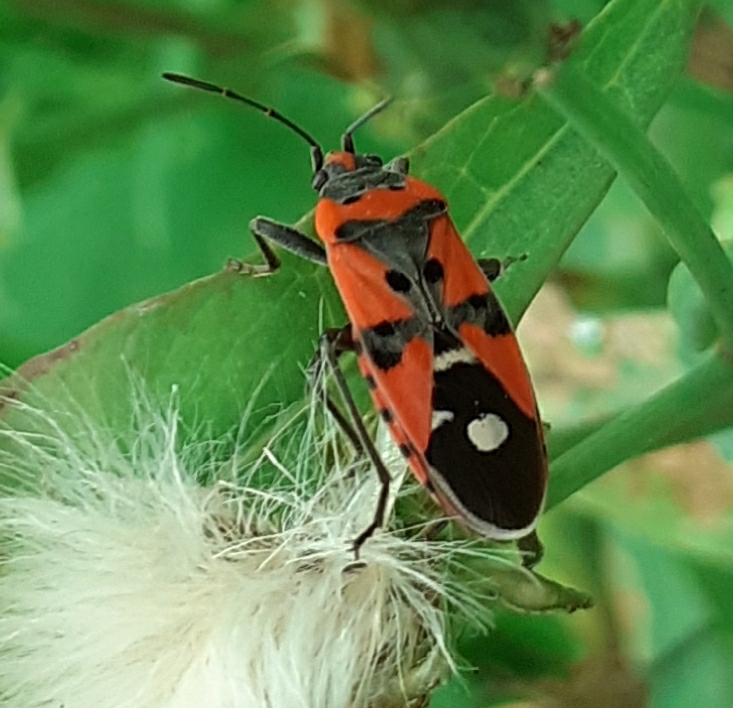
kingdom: Animalia
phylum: Arthropoda
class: Insecta
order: Hemiptera
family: Lygaeidae
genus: Lygaeus
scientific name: Lygaeus equestris
